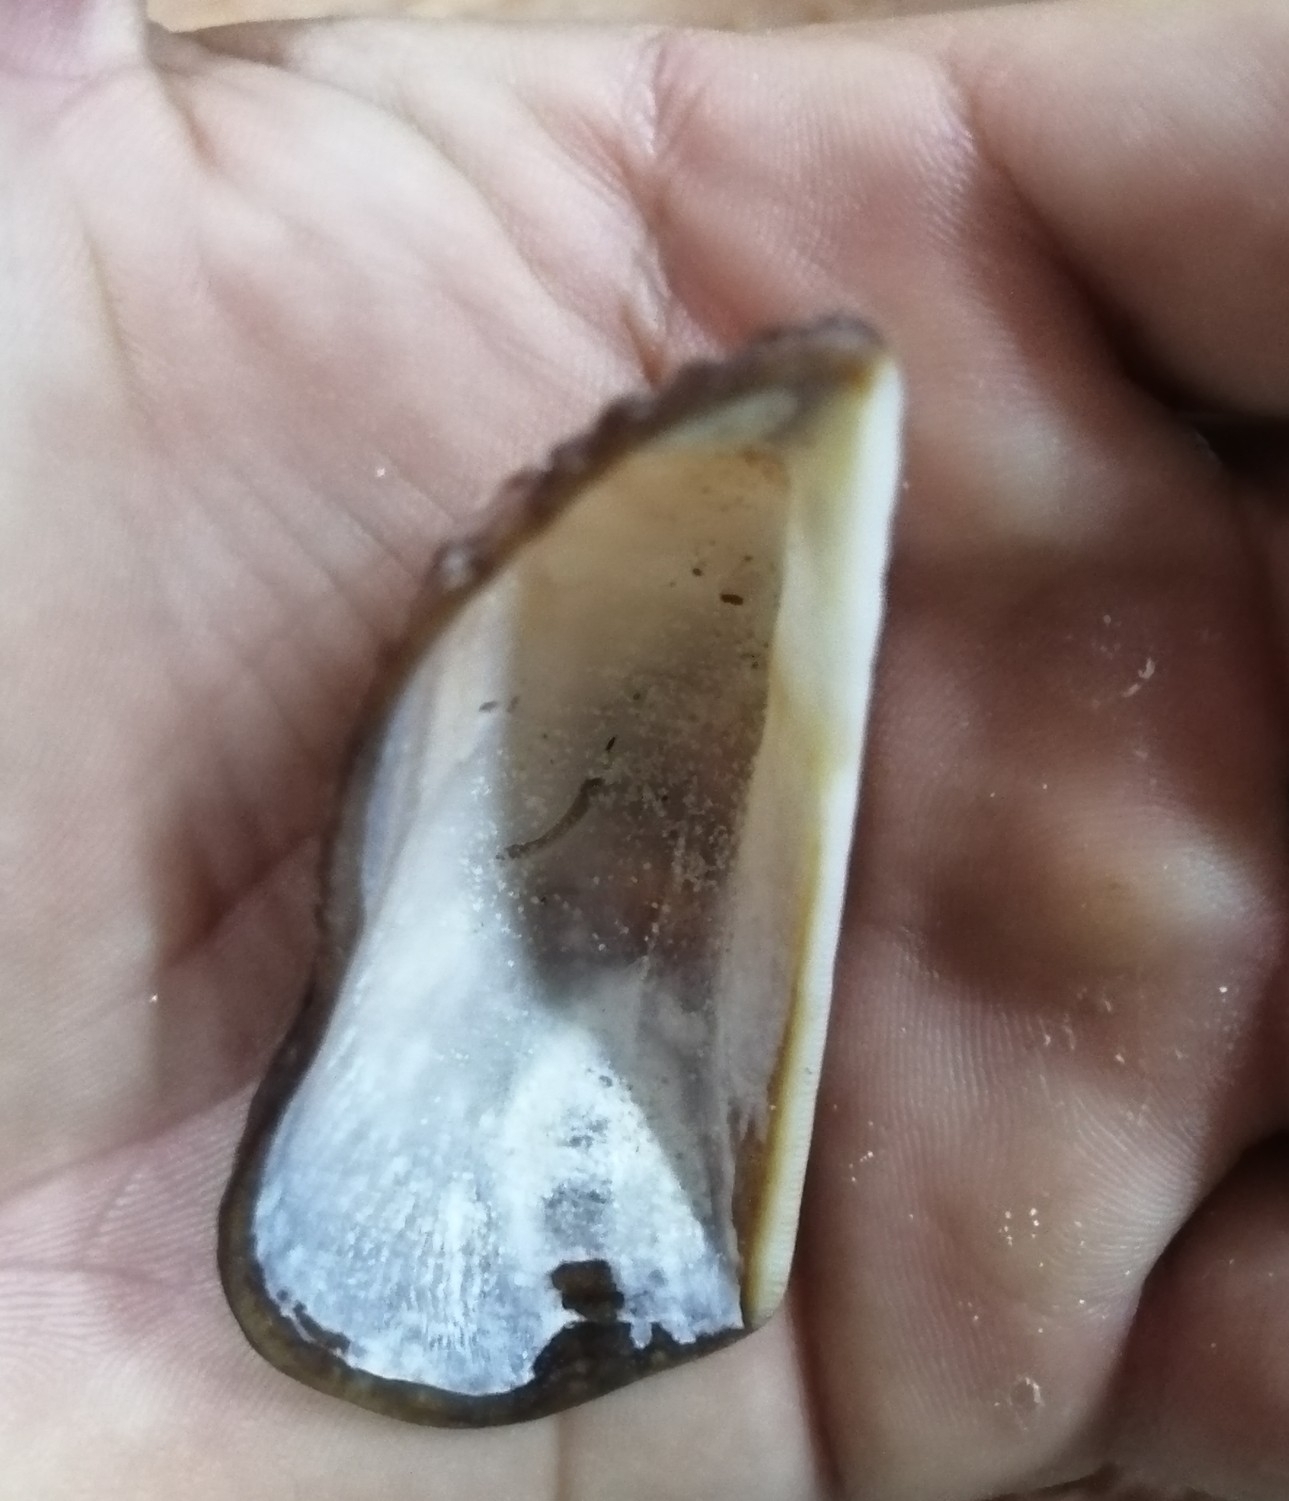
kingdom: Animalia
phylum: Mollusca
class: Bivalvia
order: Arcida
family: Arcidae
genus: Arca
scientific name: Arca zebra
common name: Atlantic turkey wing
